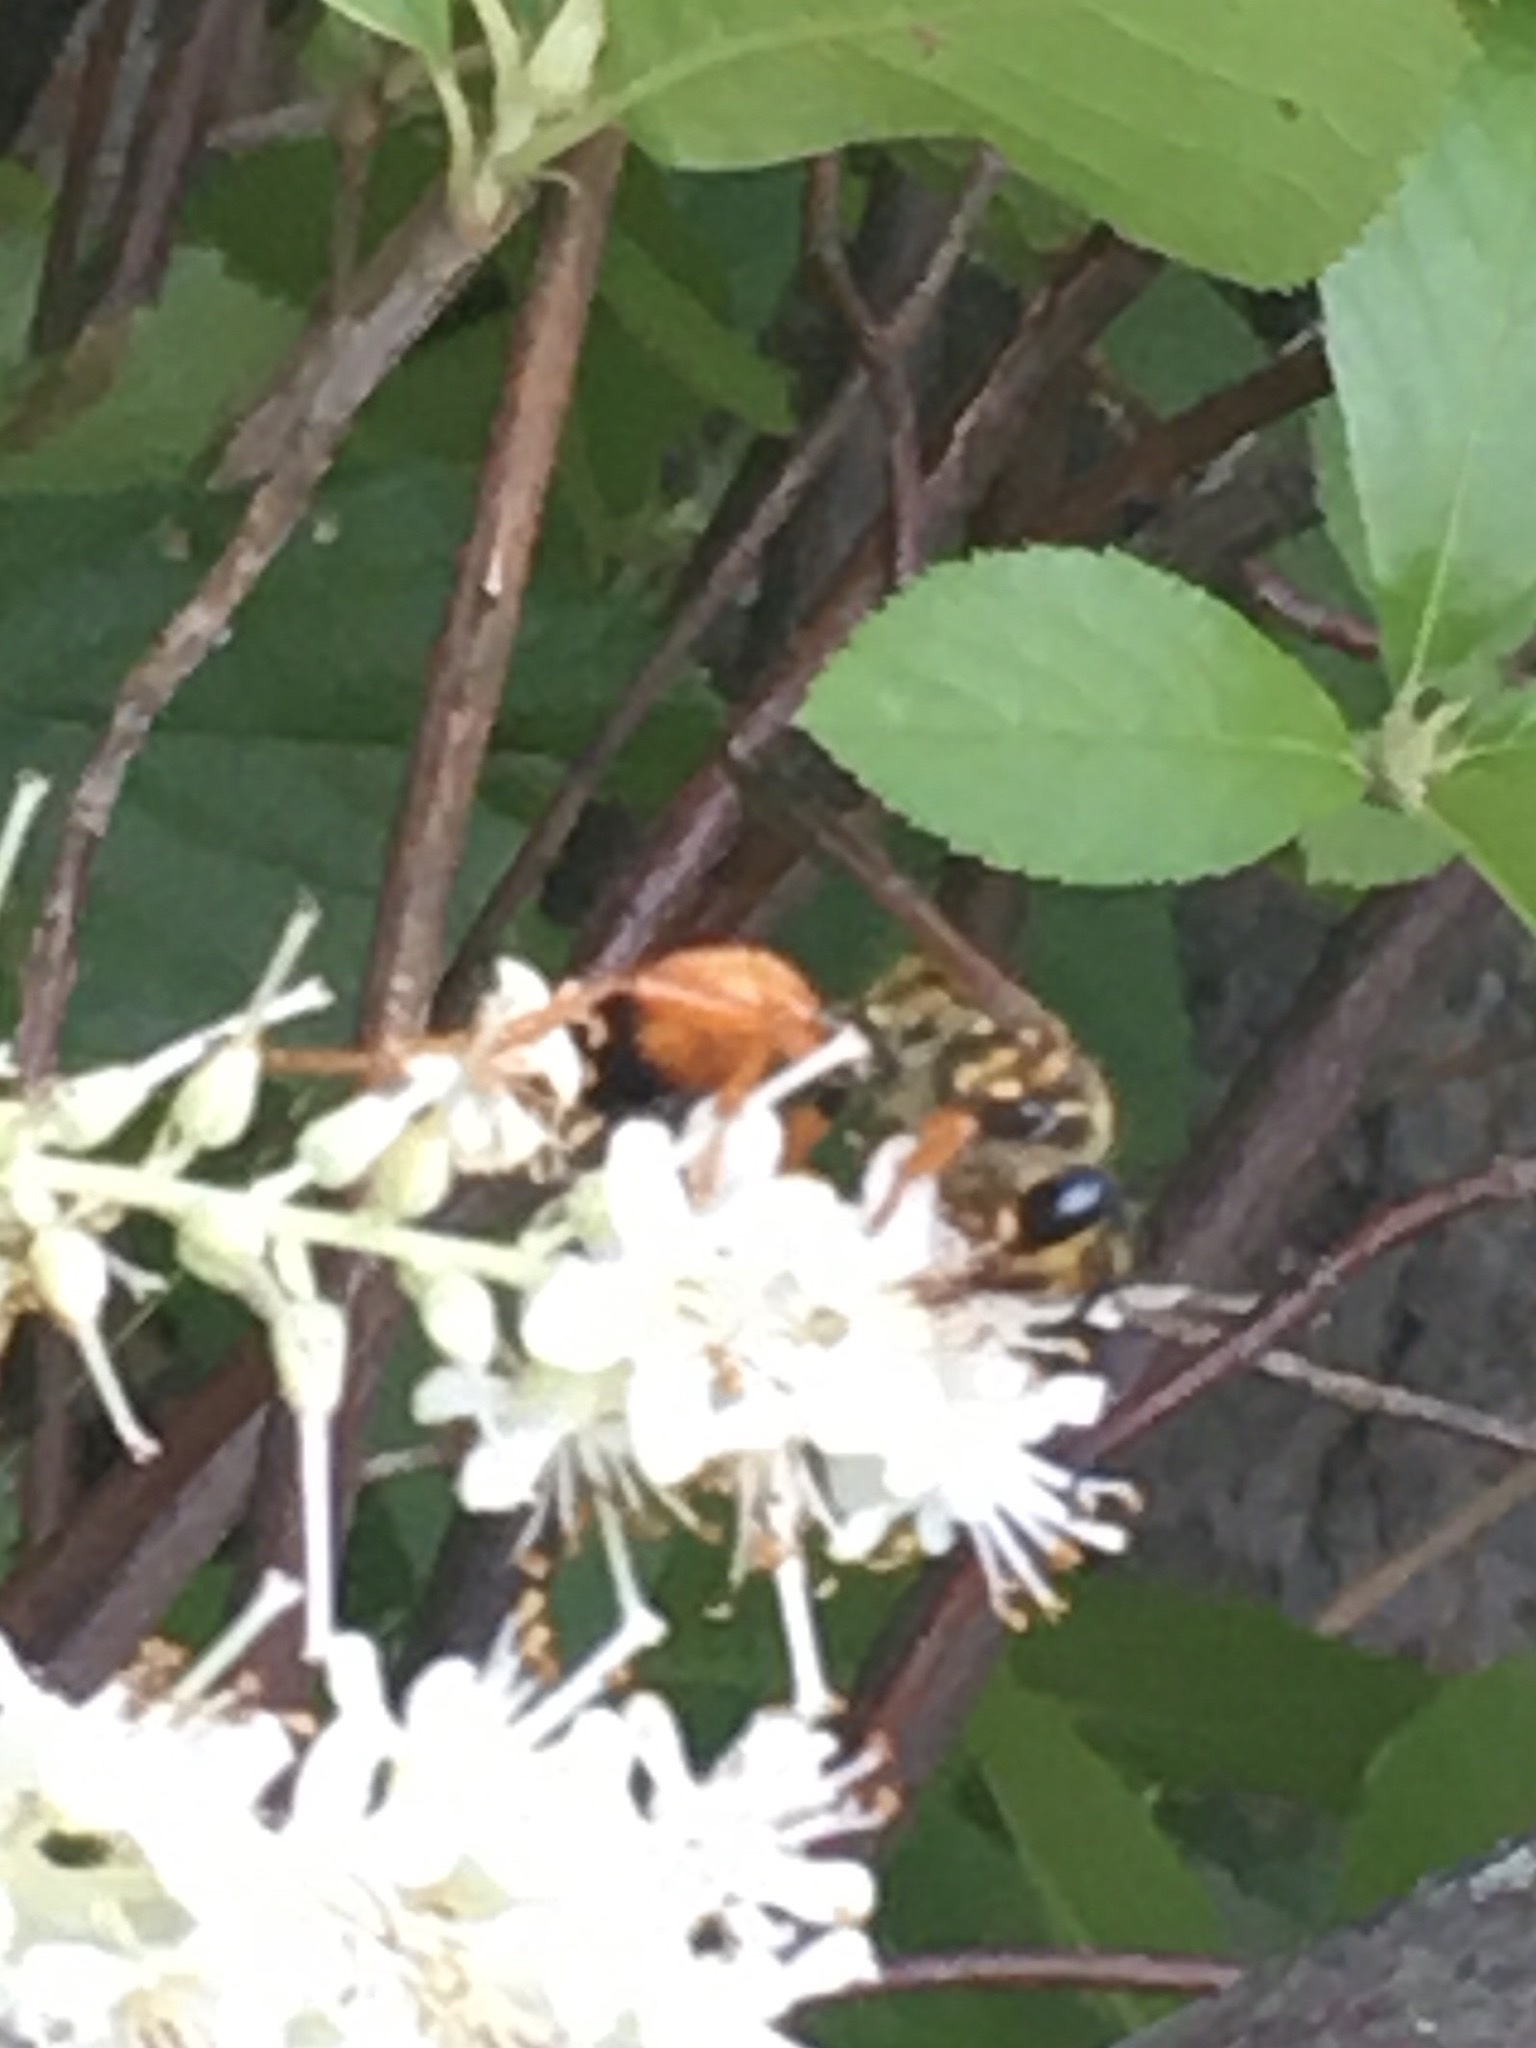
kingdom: Animalia
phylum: Arthropoda
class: Insecta
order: Hymenoptera
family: Sphecidae
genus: Sphex
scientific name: Sphex ichneumoneus
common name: Great golden digger wasp
